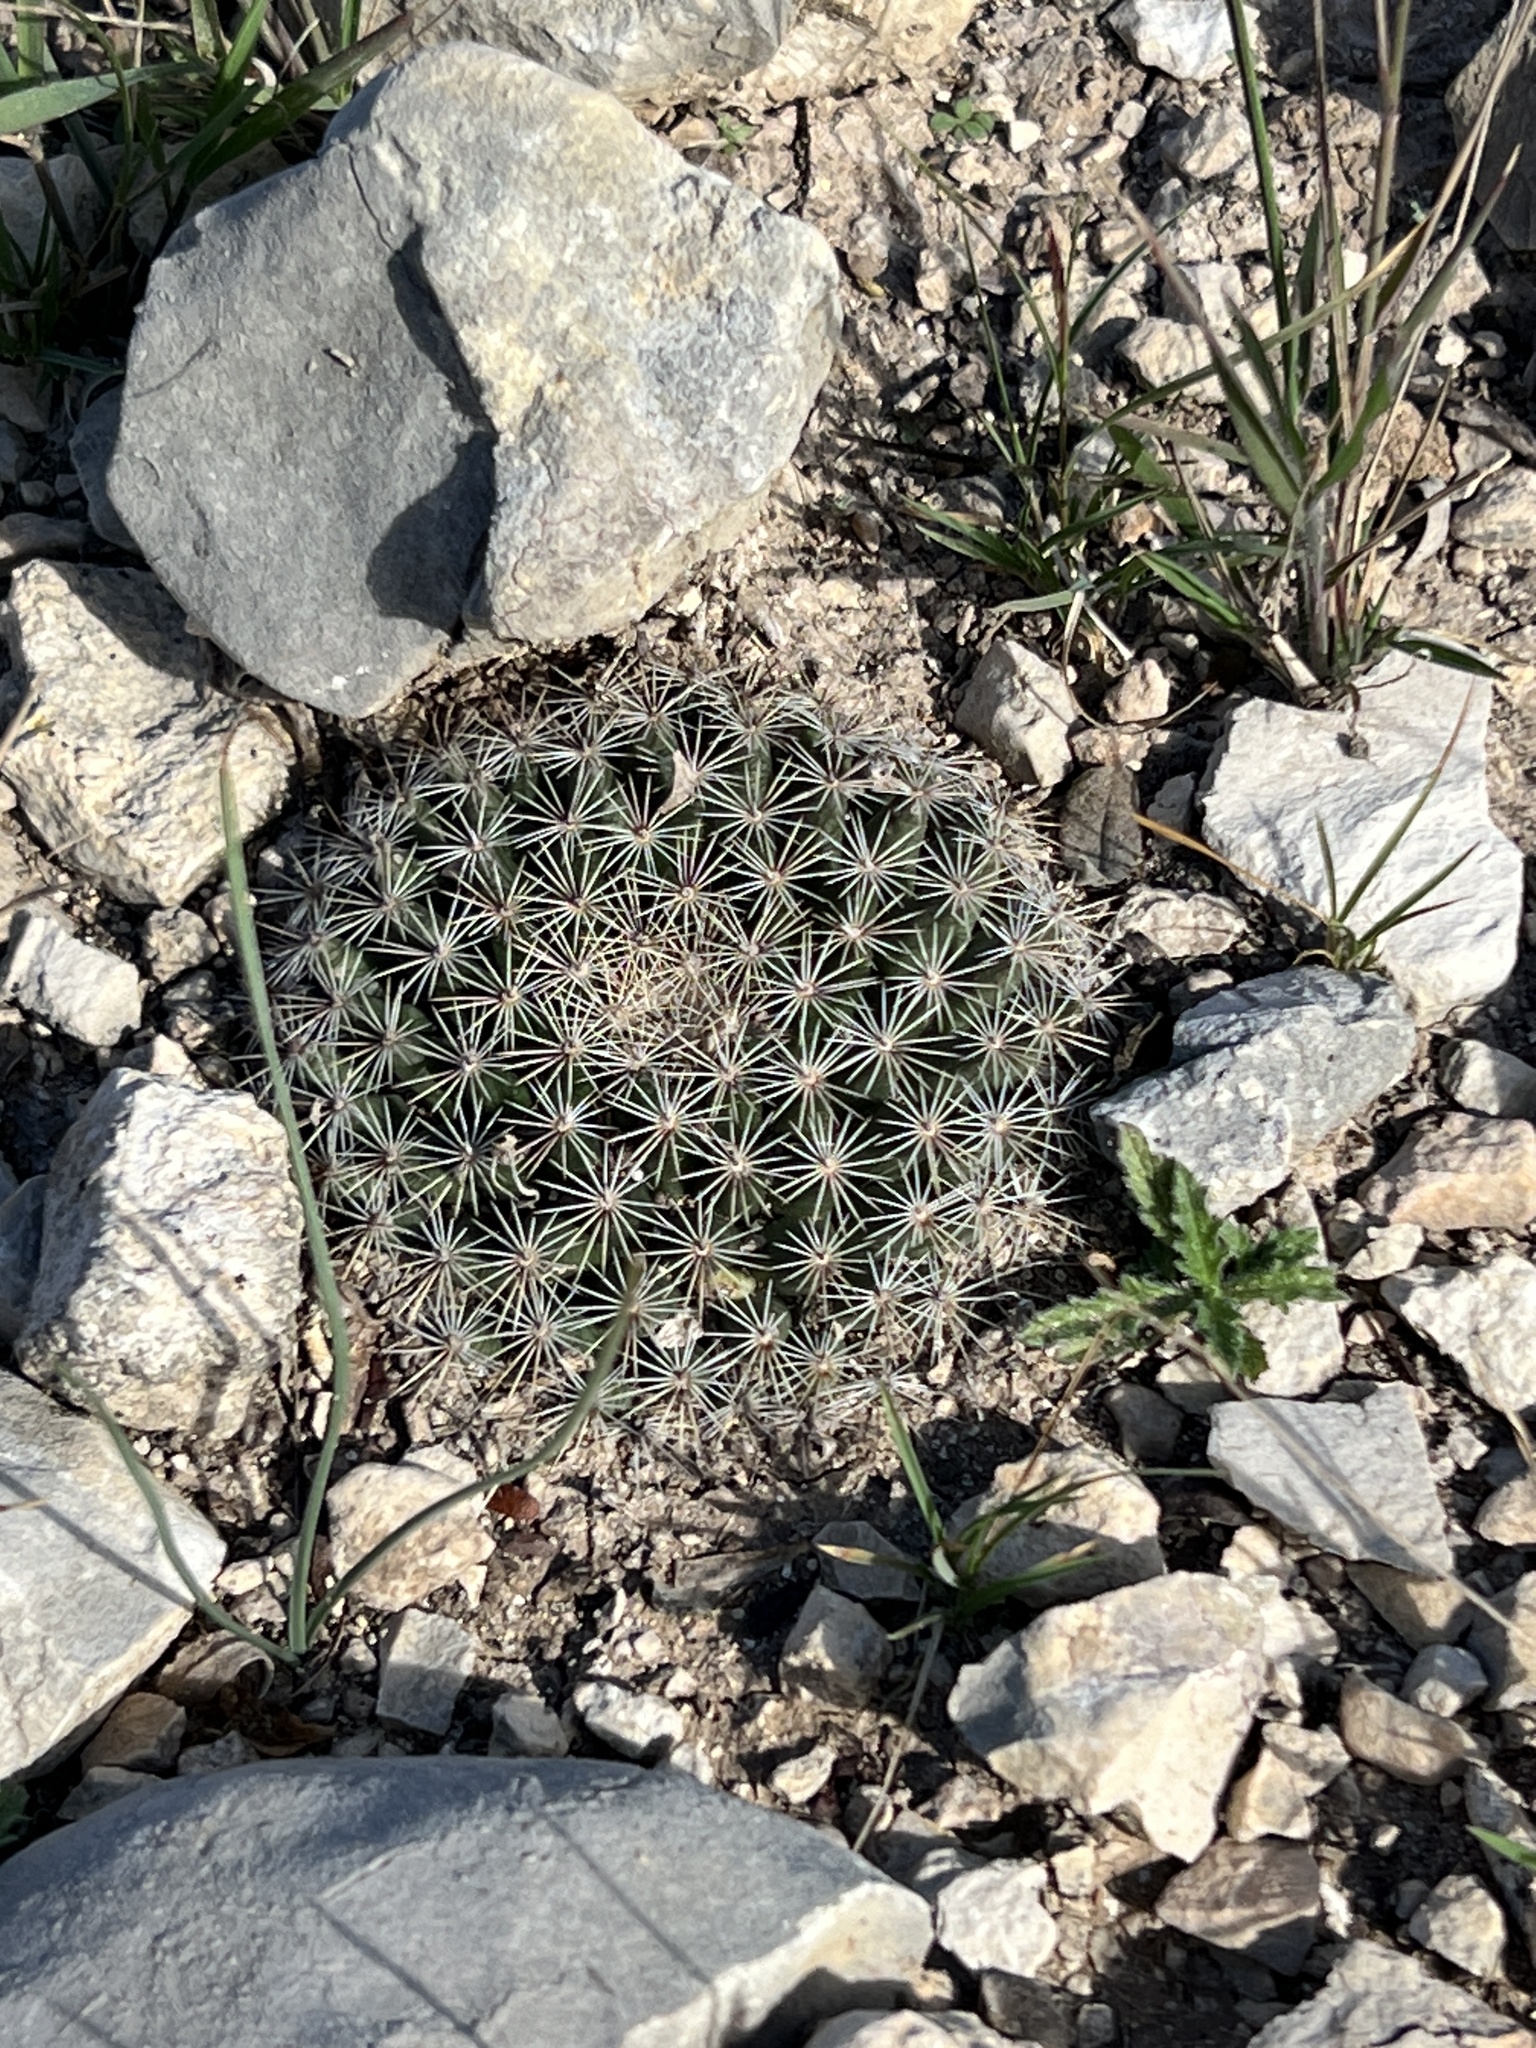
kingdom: Plantae
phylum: Tracheophyta
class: Magnoliopsida
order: Caryophyllales
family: Cactaceae
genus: Mammillaria
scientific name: Mammillaria heyderi
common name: Little nipple cactus
